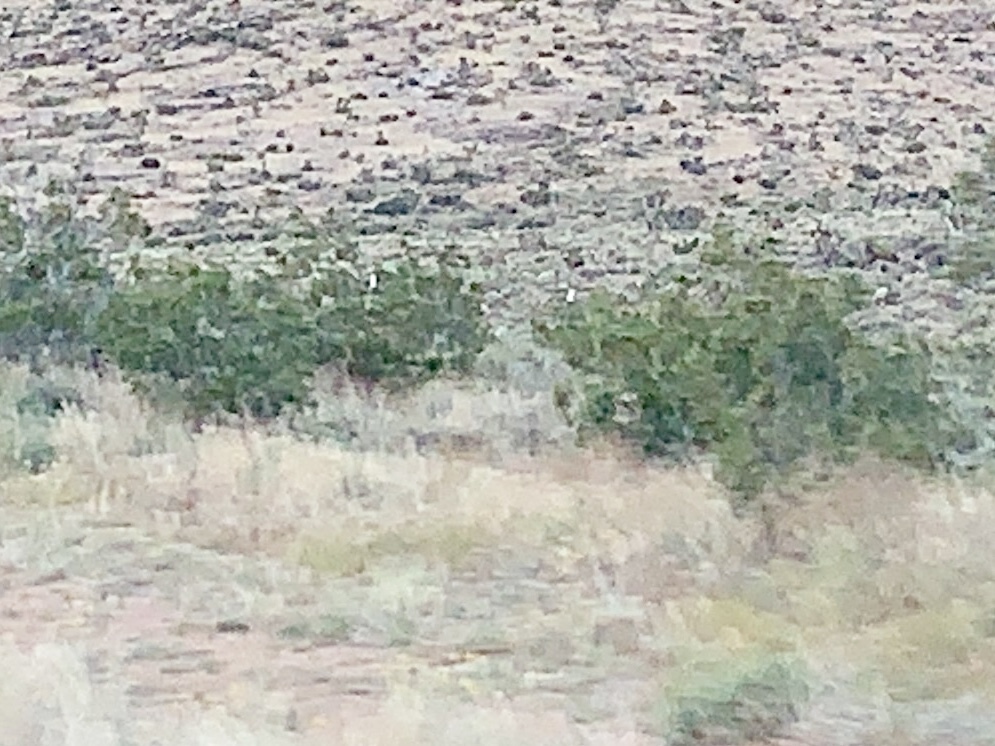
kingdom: Plantae
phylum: Tracheophyta
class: Magnoliopsida
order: Zygophyllales
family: Zygophyllaceae
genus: Larrea
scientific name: Larrea tridentata
